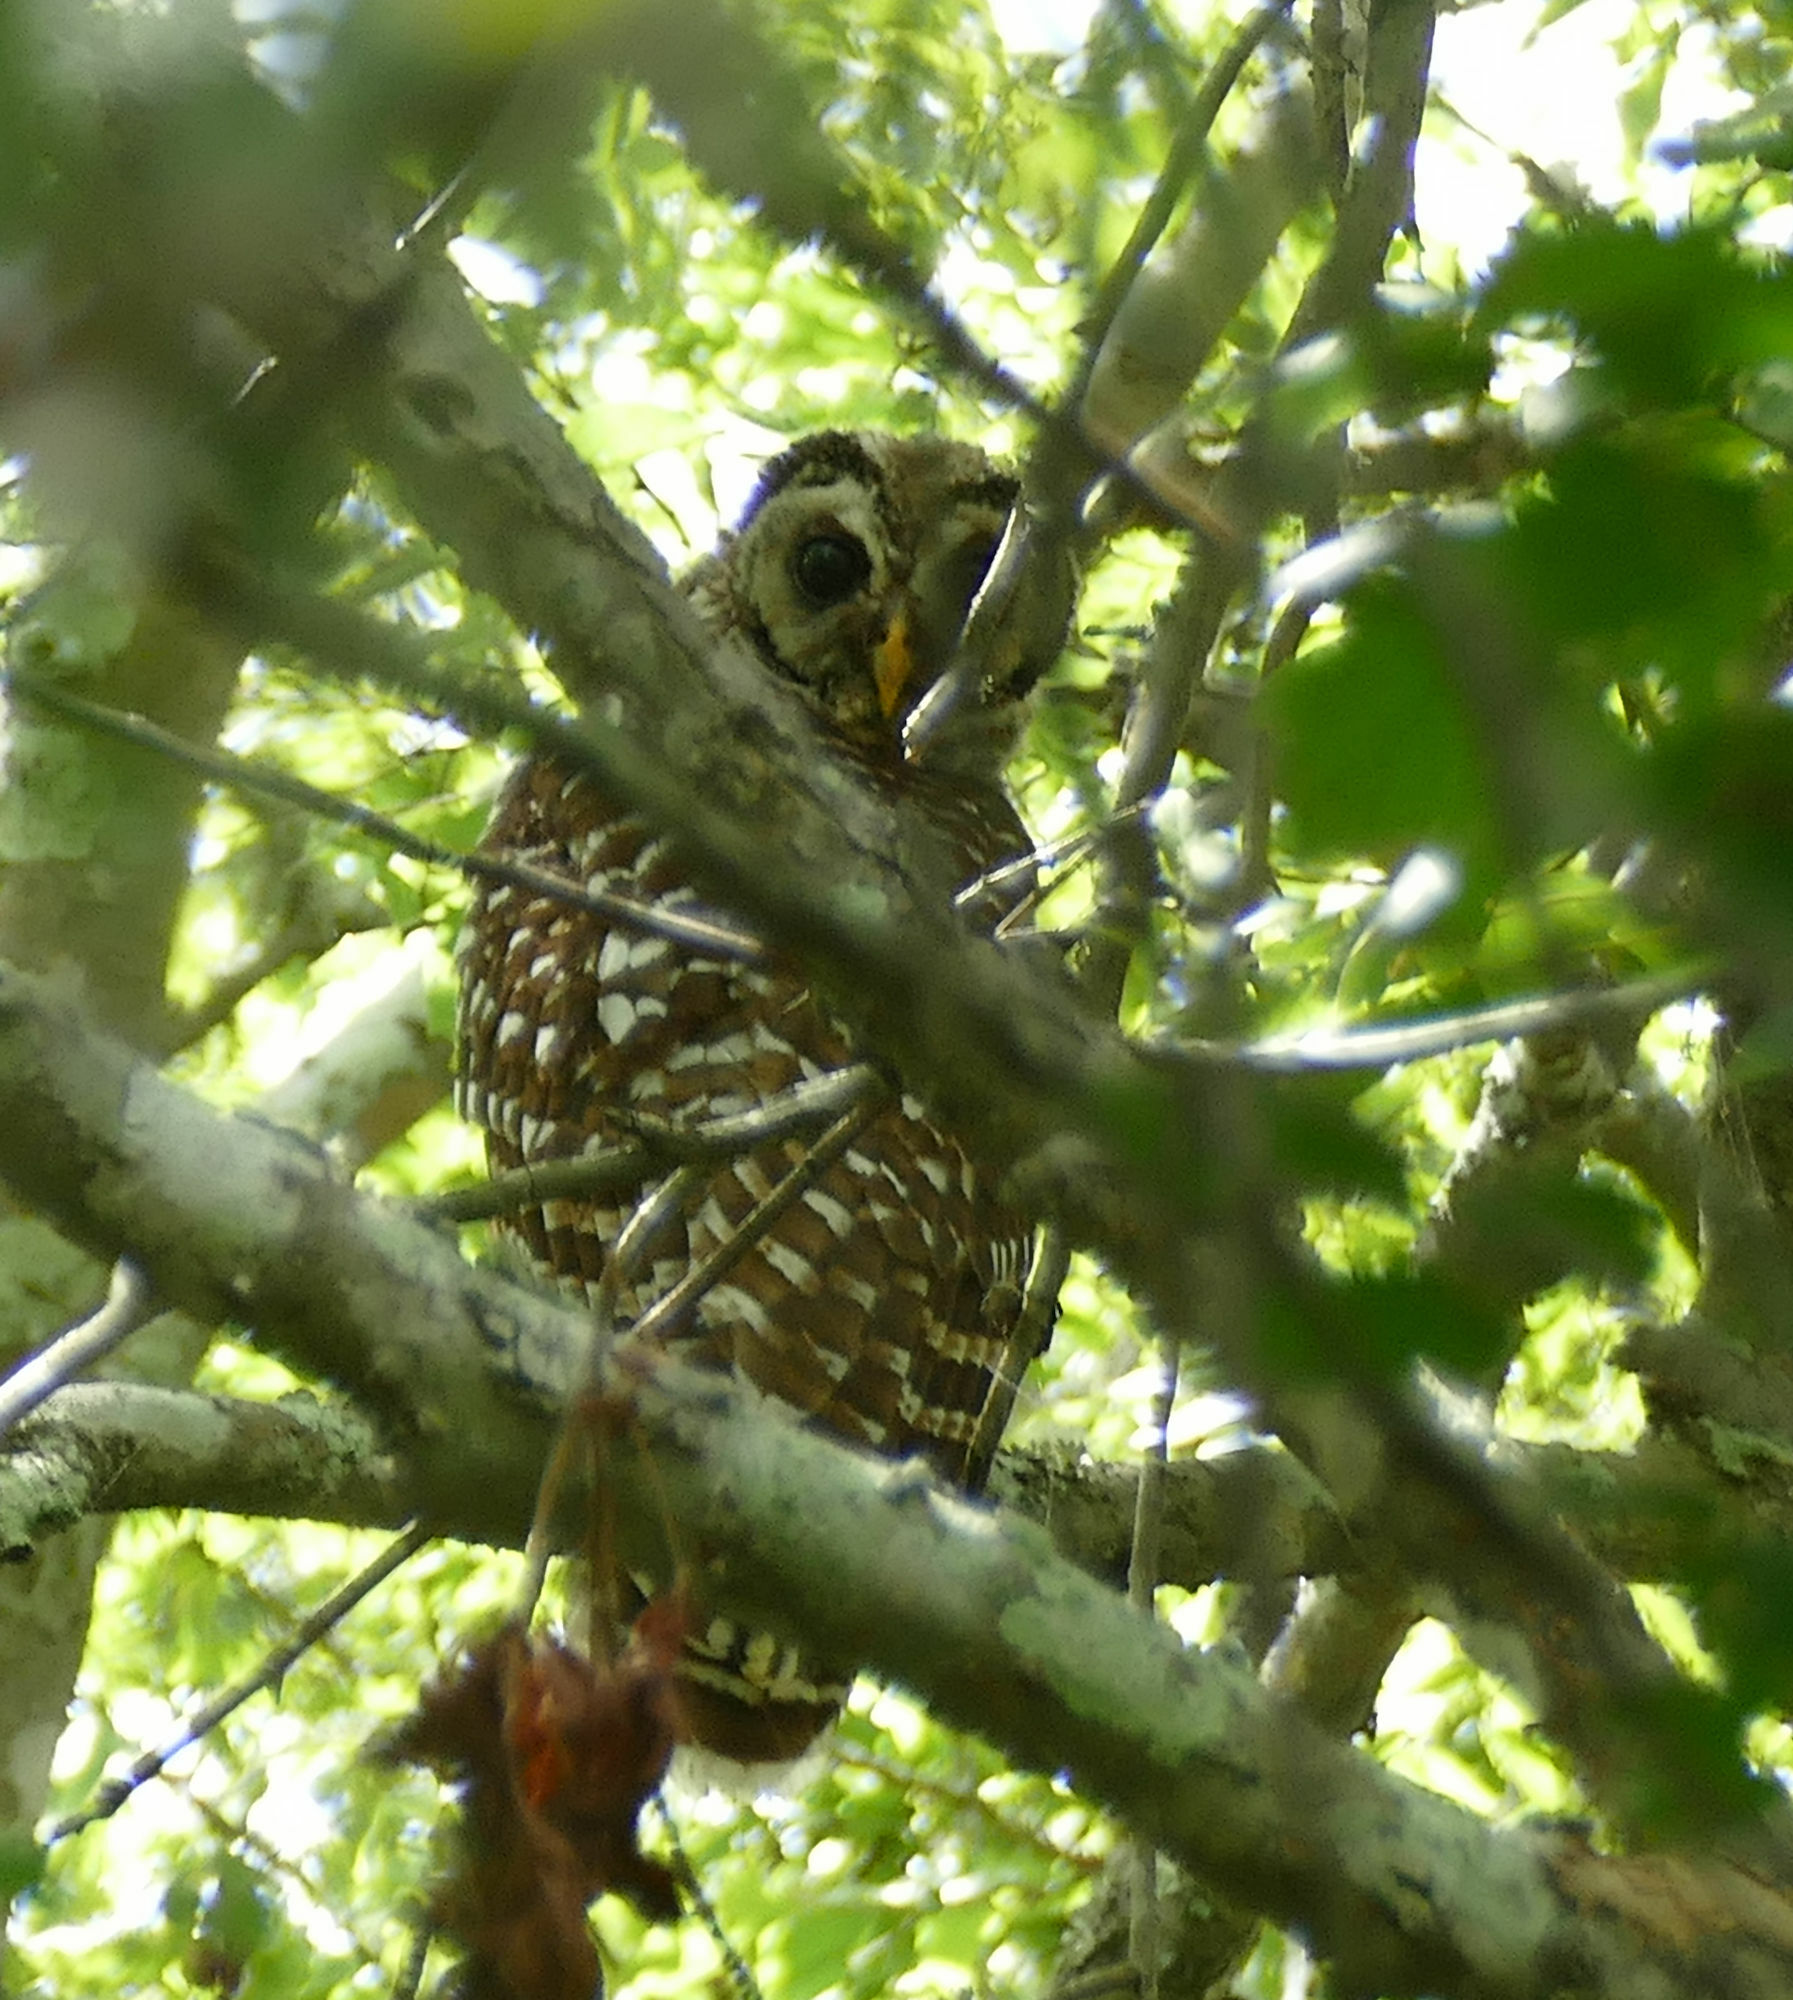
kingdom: Animalia
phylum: Chordata
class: Aves
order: Strigiformes
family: Strigidae
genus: Strix
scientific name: Strix varia
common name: Barred owl
